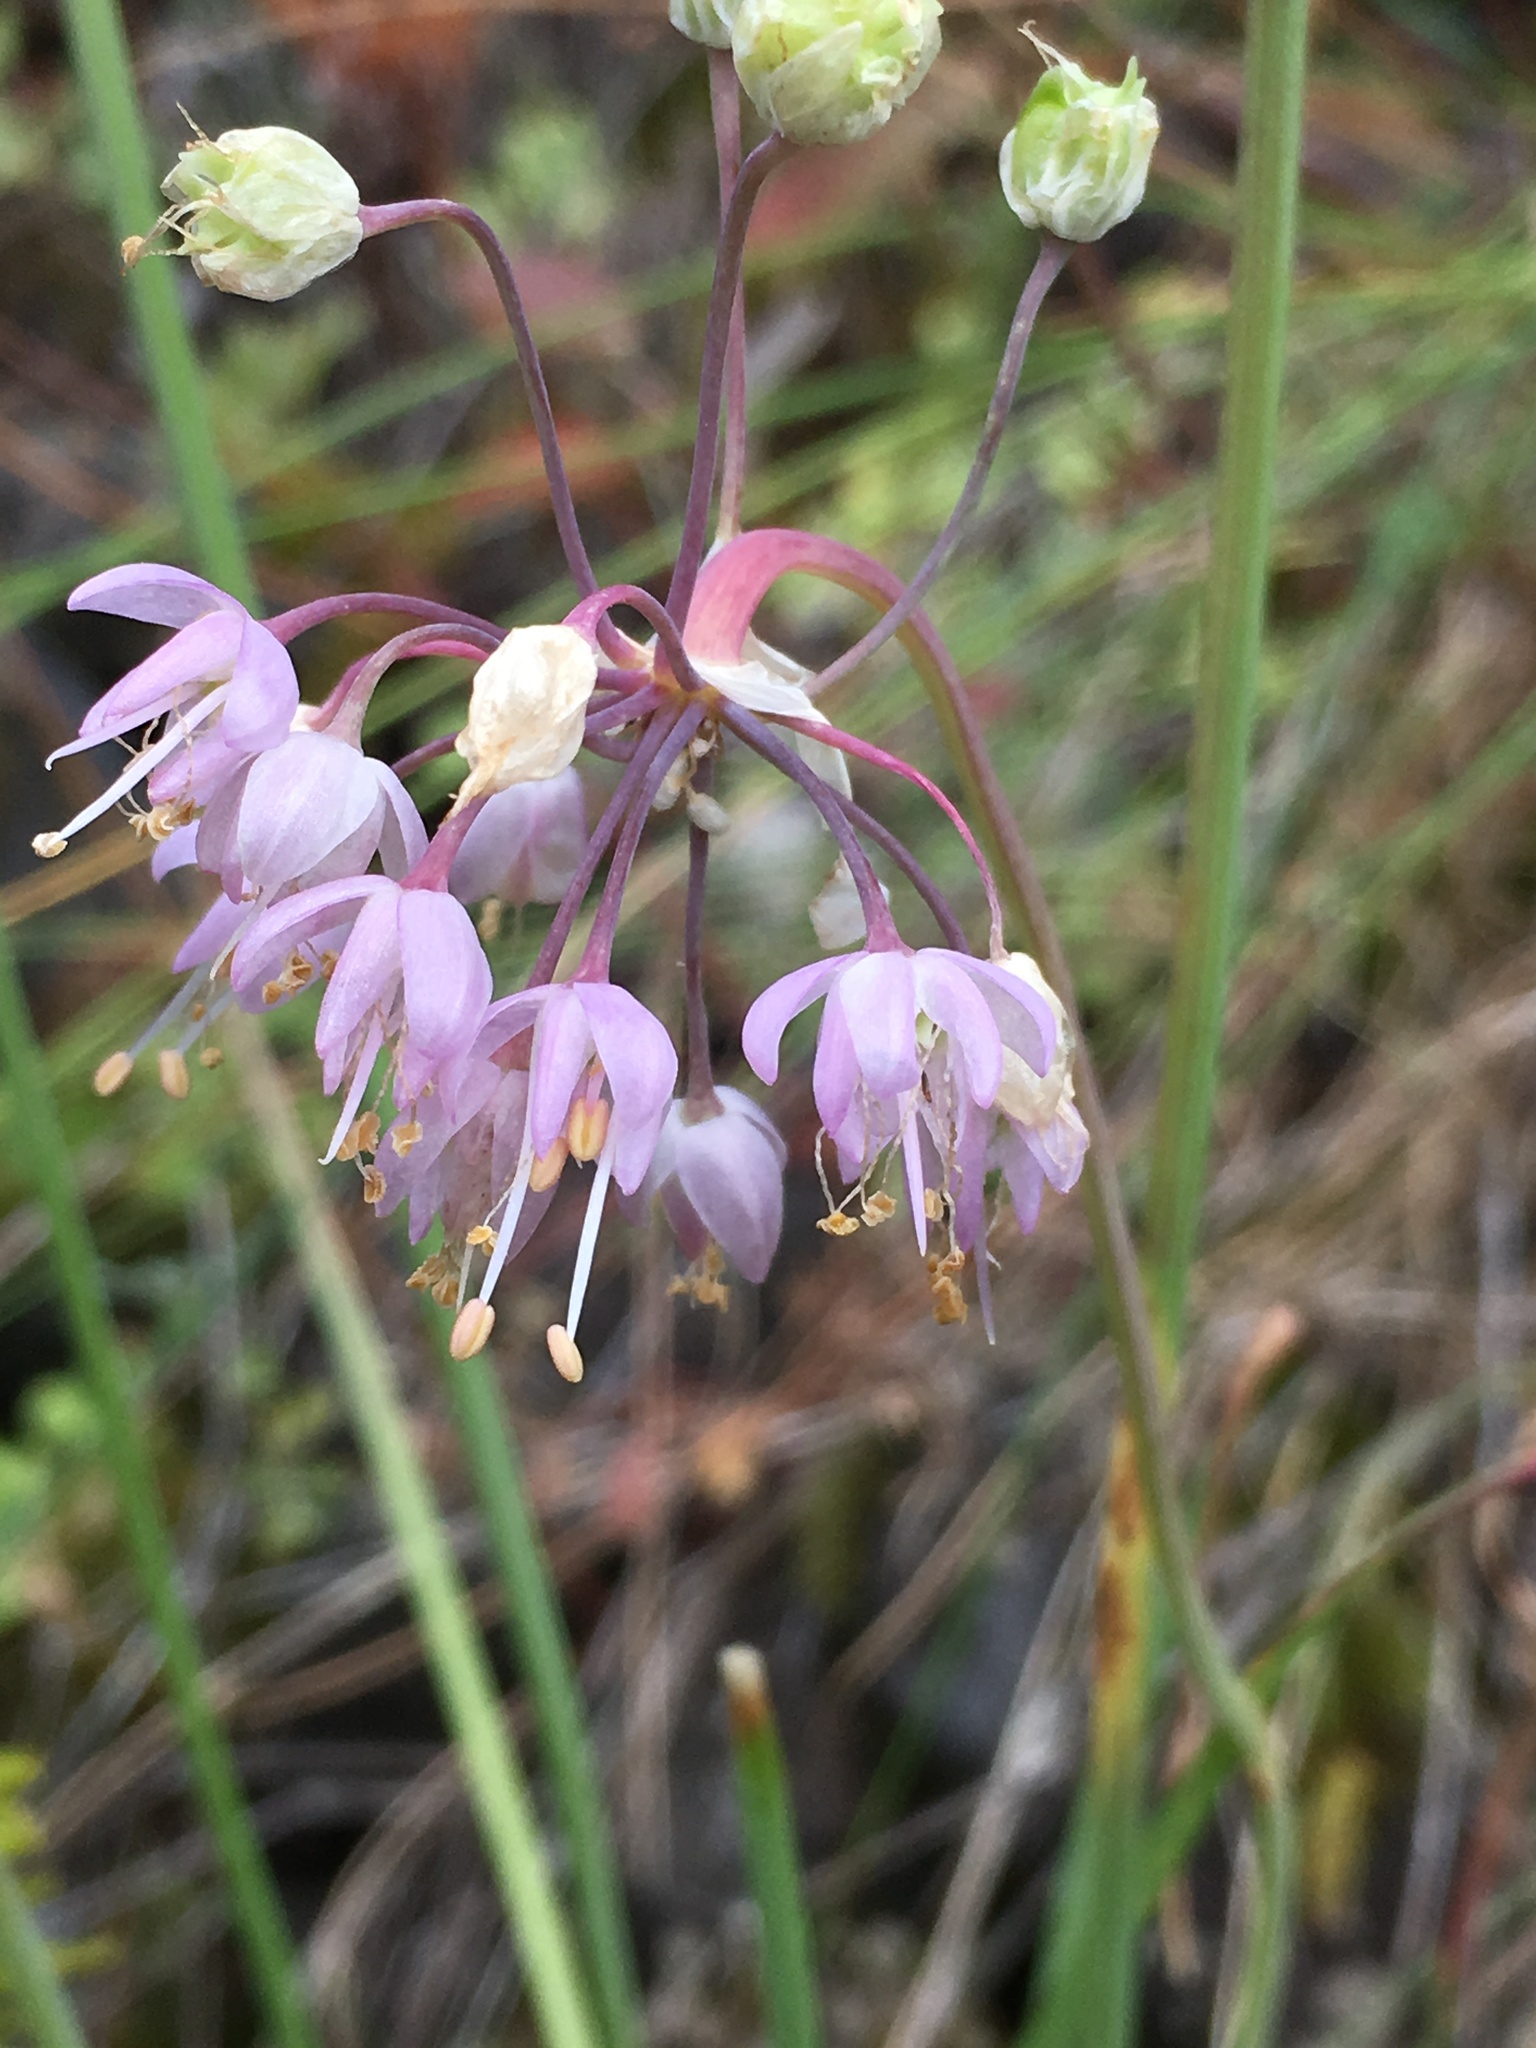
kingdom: Plantae
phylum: Tracheophyta
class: Liliopsida
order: Asparagales
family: Amaryllidaceae
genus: Allium
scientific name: Allium cernuum
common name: Nodding onion
